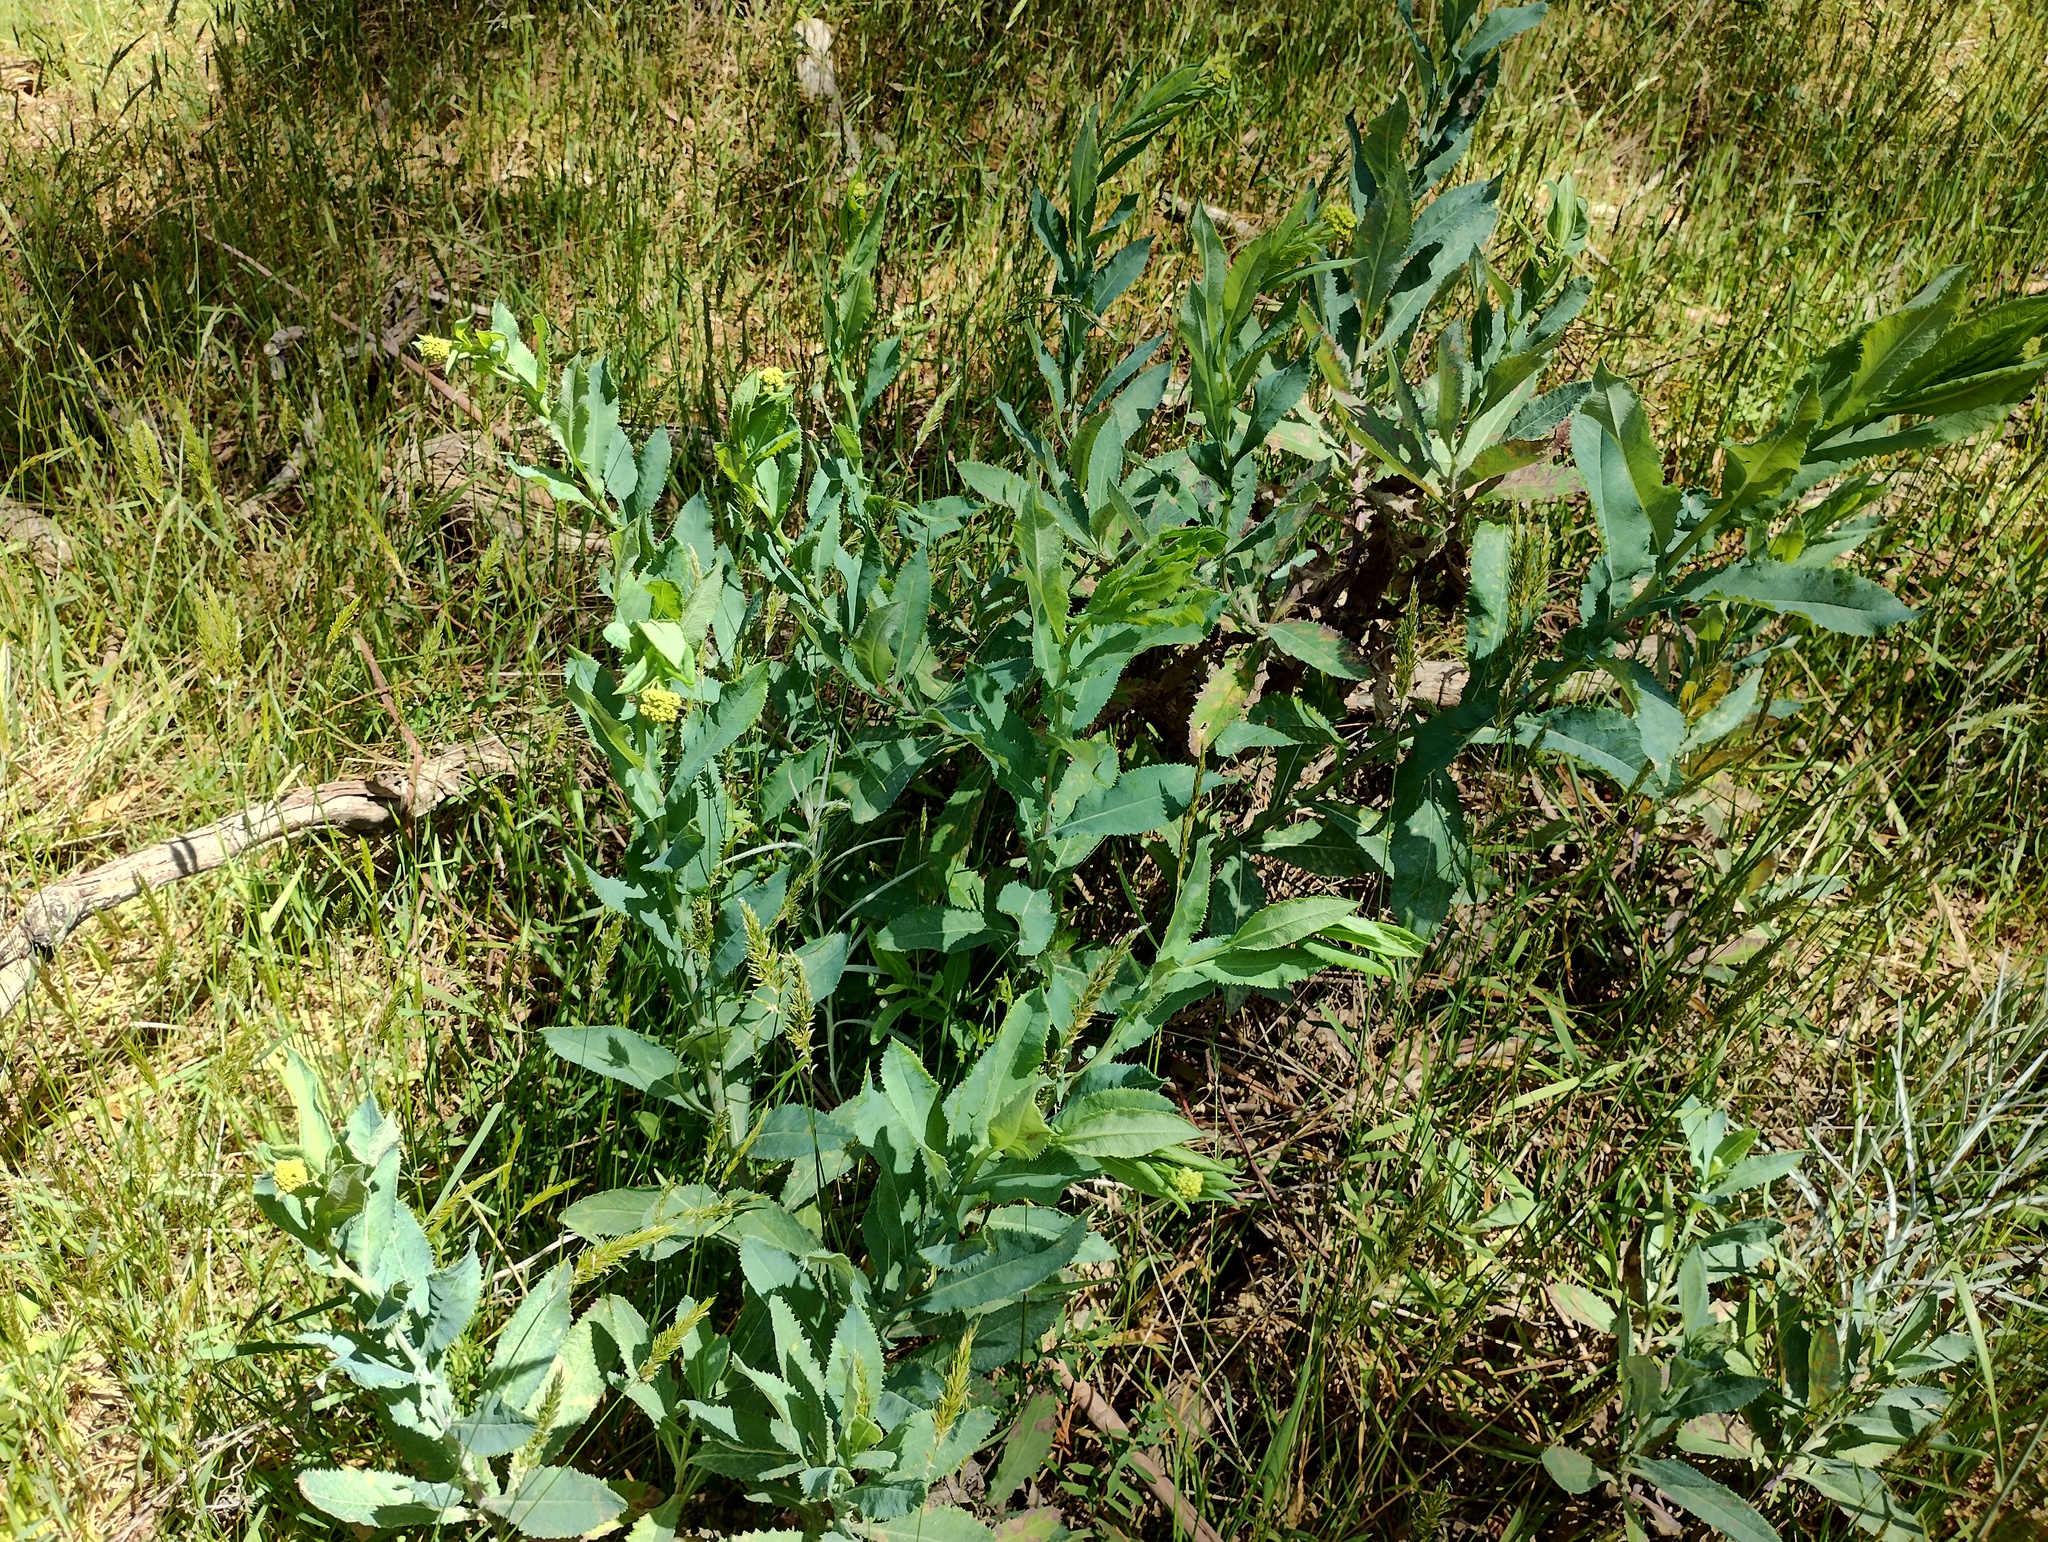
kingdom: Plantae
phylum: Tracheophyta
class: Magnoliopsida
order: Asterales
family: Asteraceae
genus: Senecio
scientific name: Senecio odoratus
